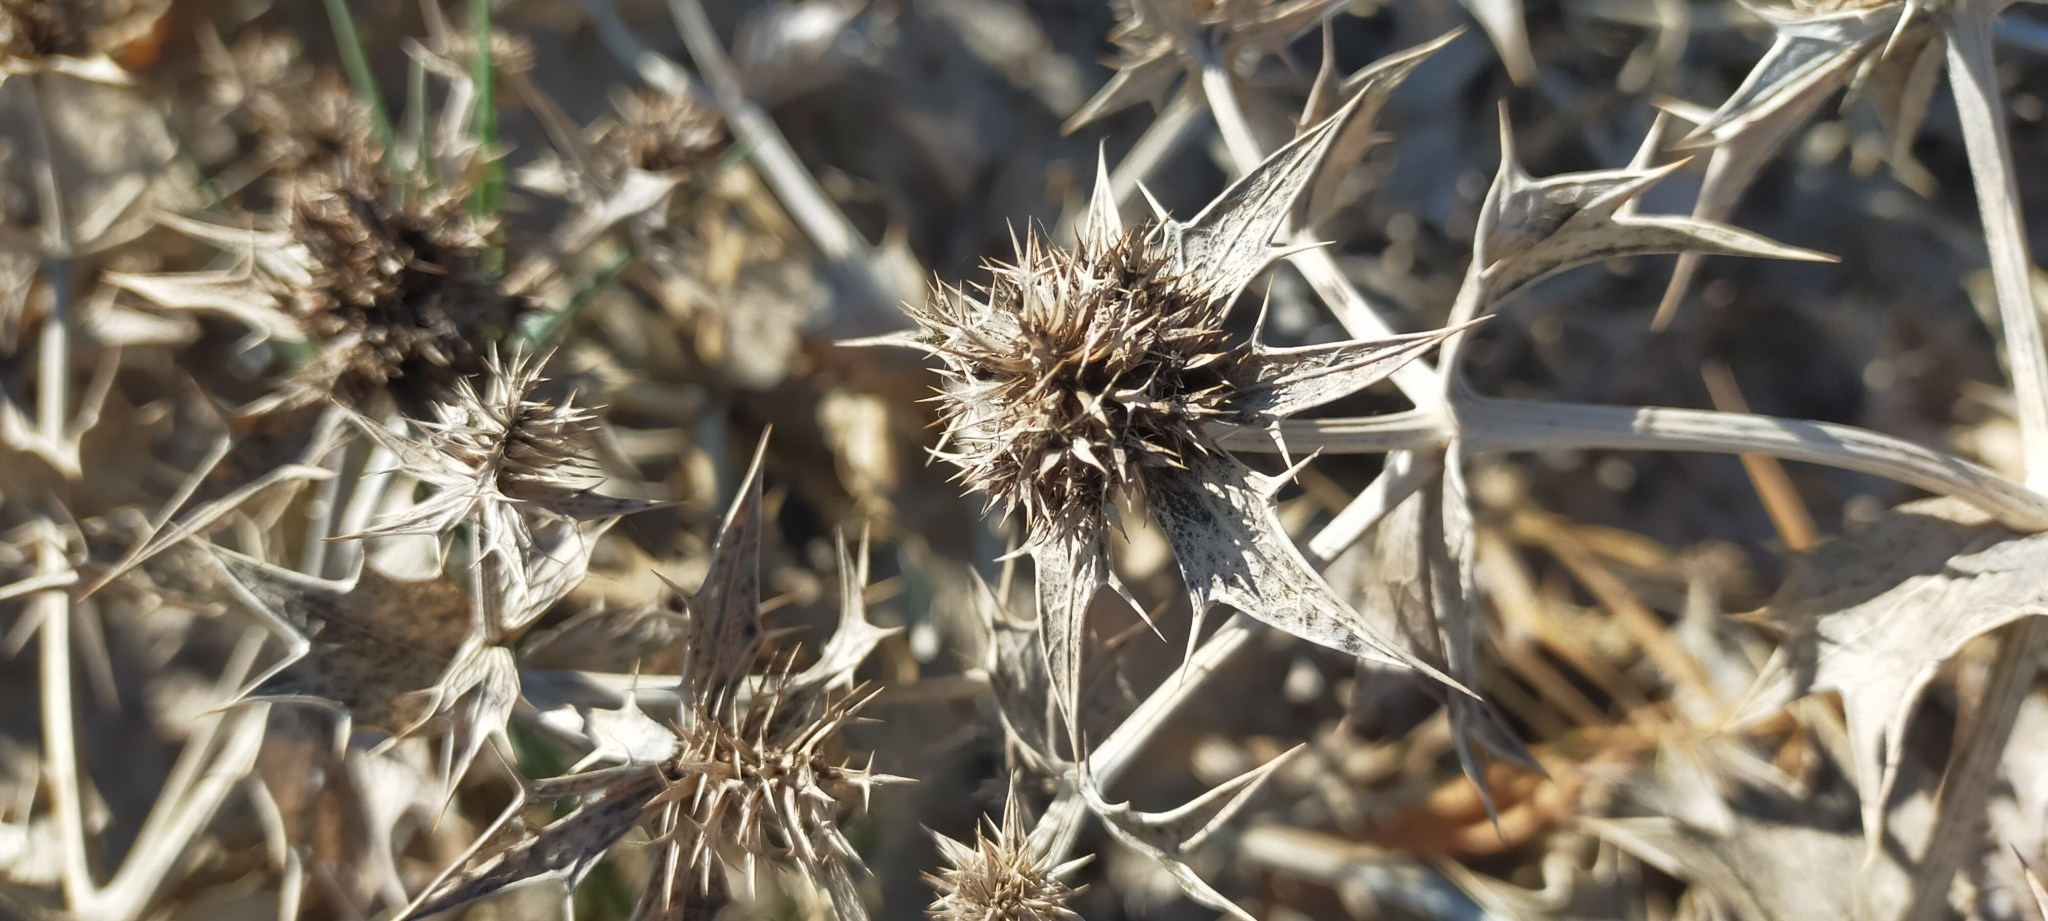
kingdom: Plantae
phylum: Tracheophyta
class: Magnoliopsida
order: Apiales
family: Apiaceae
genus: Eryngium
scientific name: Eryngium maritimum
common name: Sea-holly
